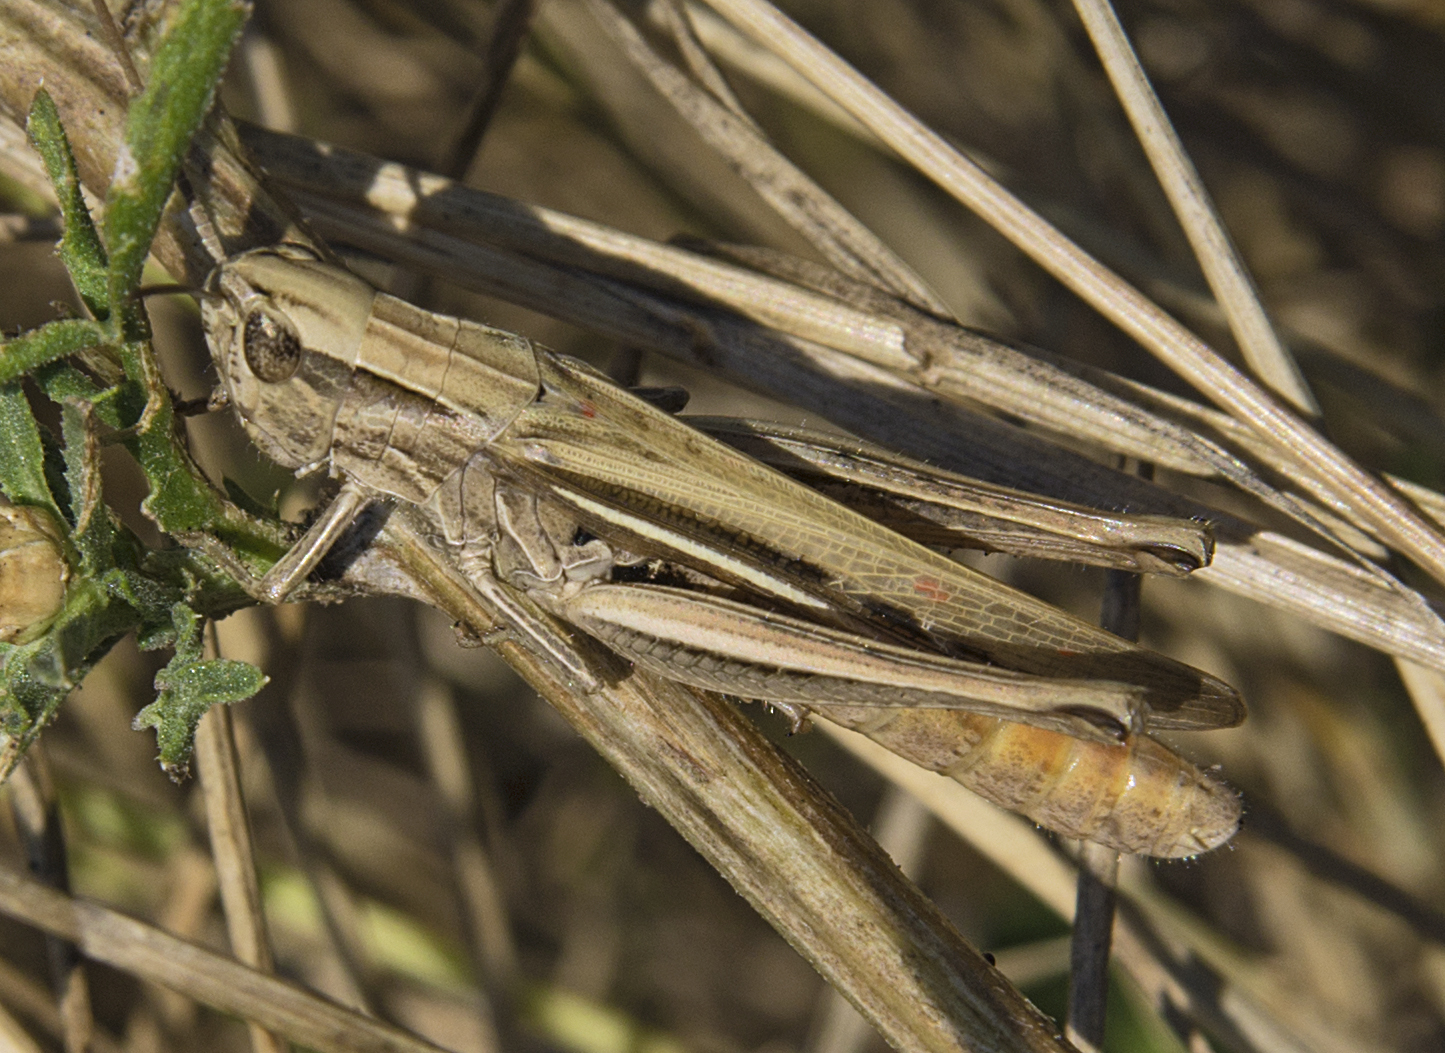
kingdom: Animalia
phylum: Arthropoda
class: Insecta
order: Orthoptera
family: Acrididae
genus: Chorthippus
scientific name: Chorthippus loratus
